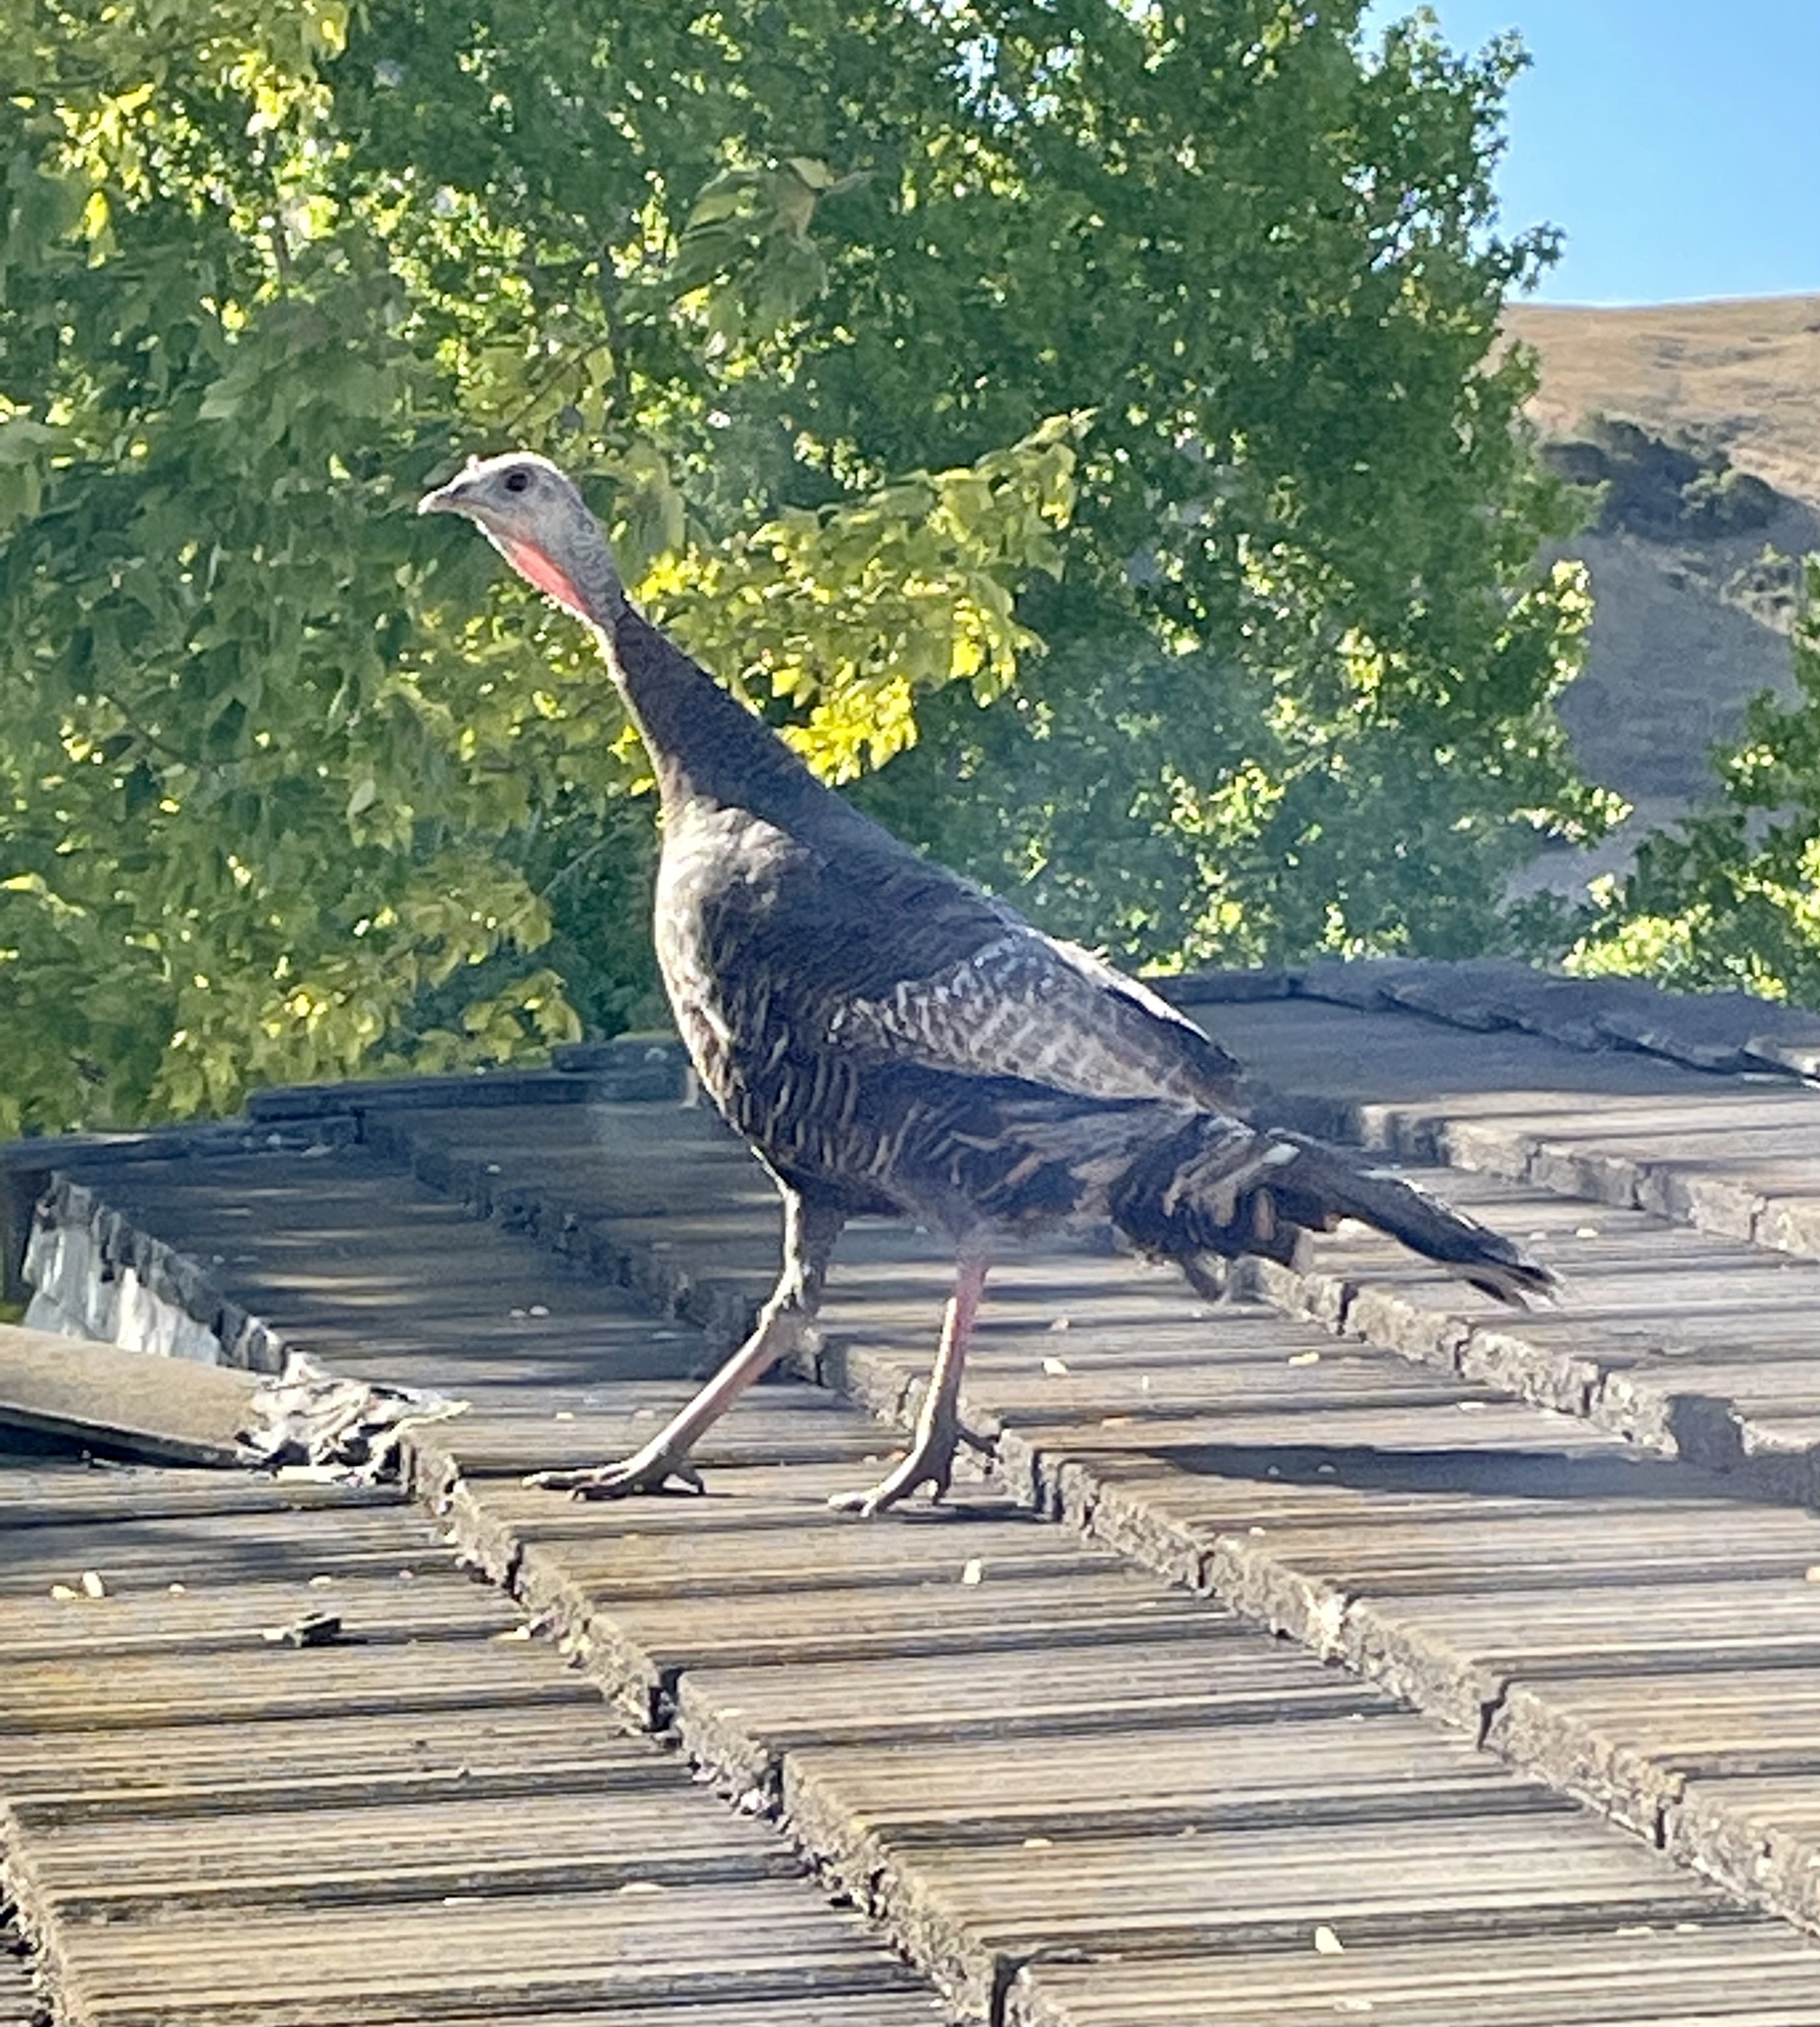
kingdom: Animalia
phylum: Chordata
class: Aves
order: Galliformes
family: Phasianidae
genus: Meleagris
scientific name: Meleagris gallopavo
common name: Wild turkey
